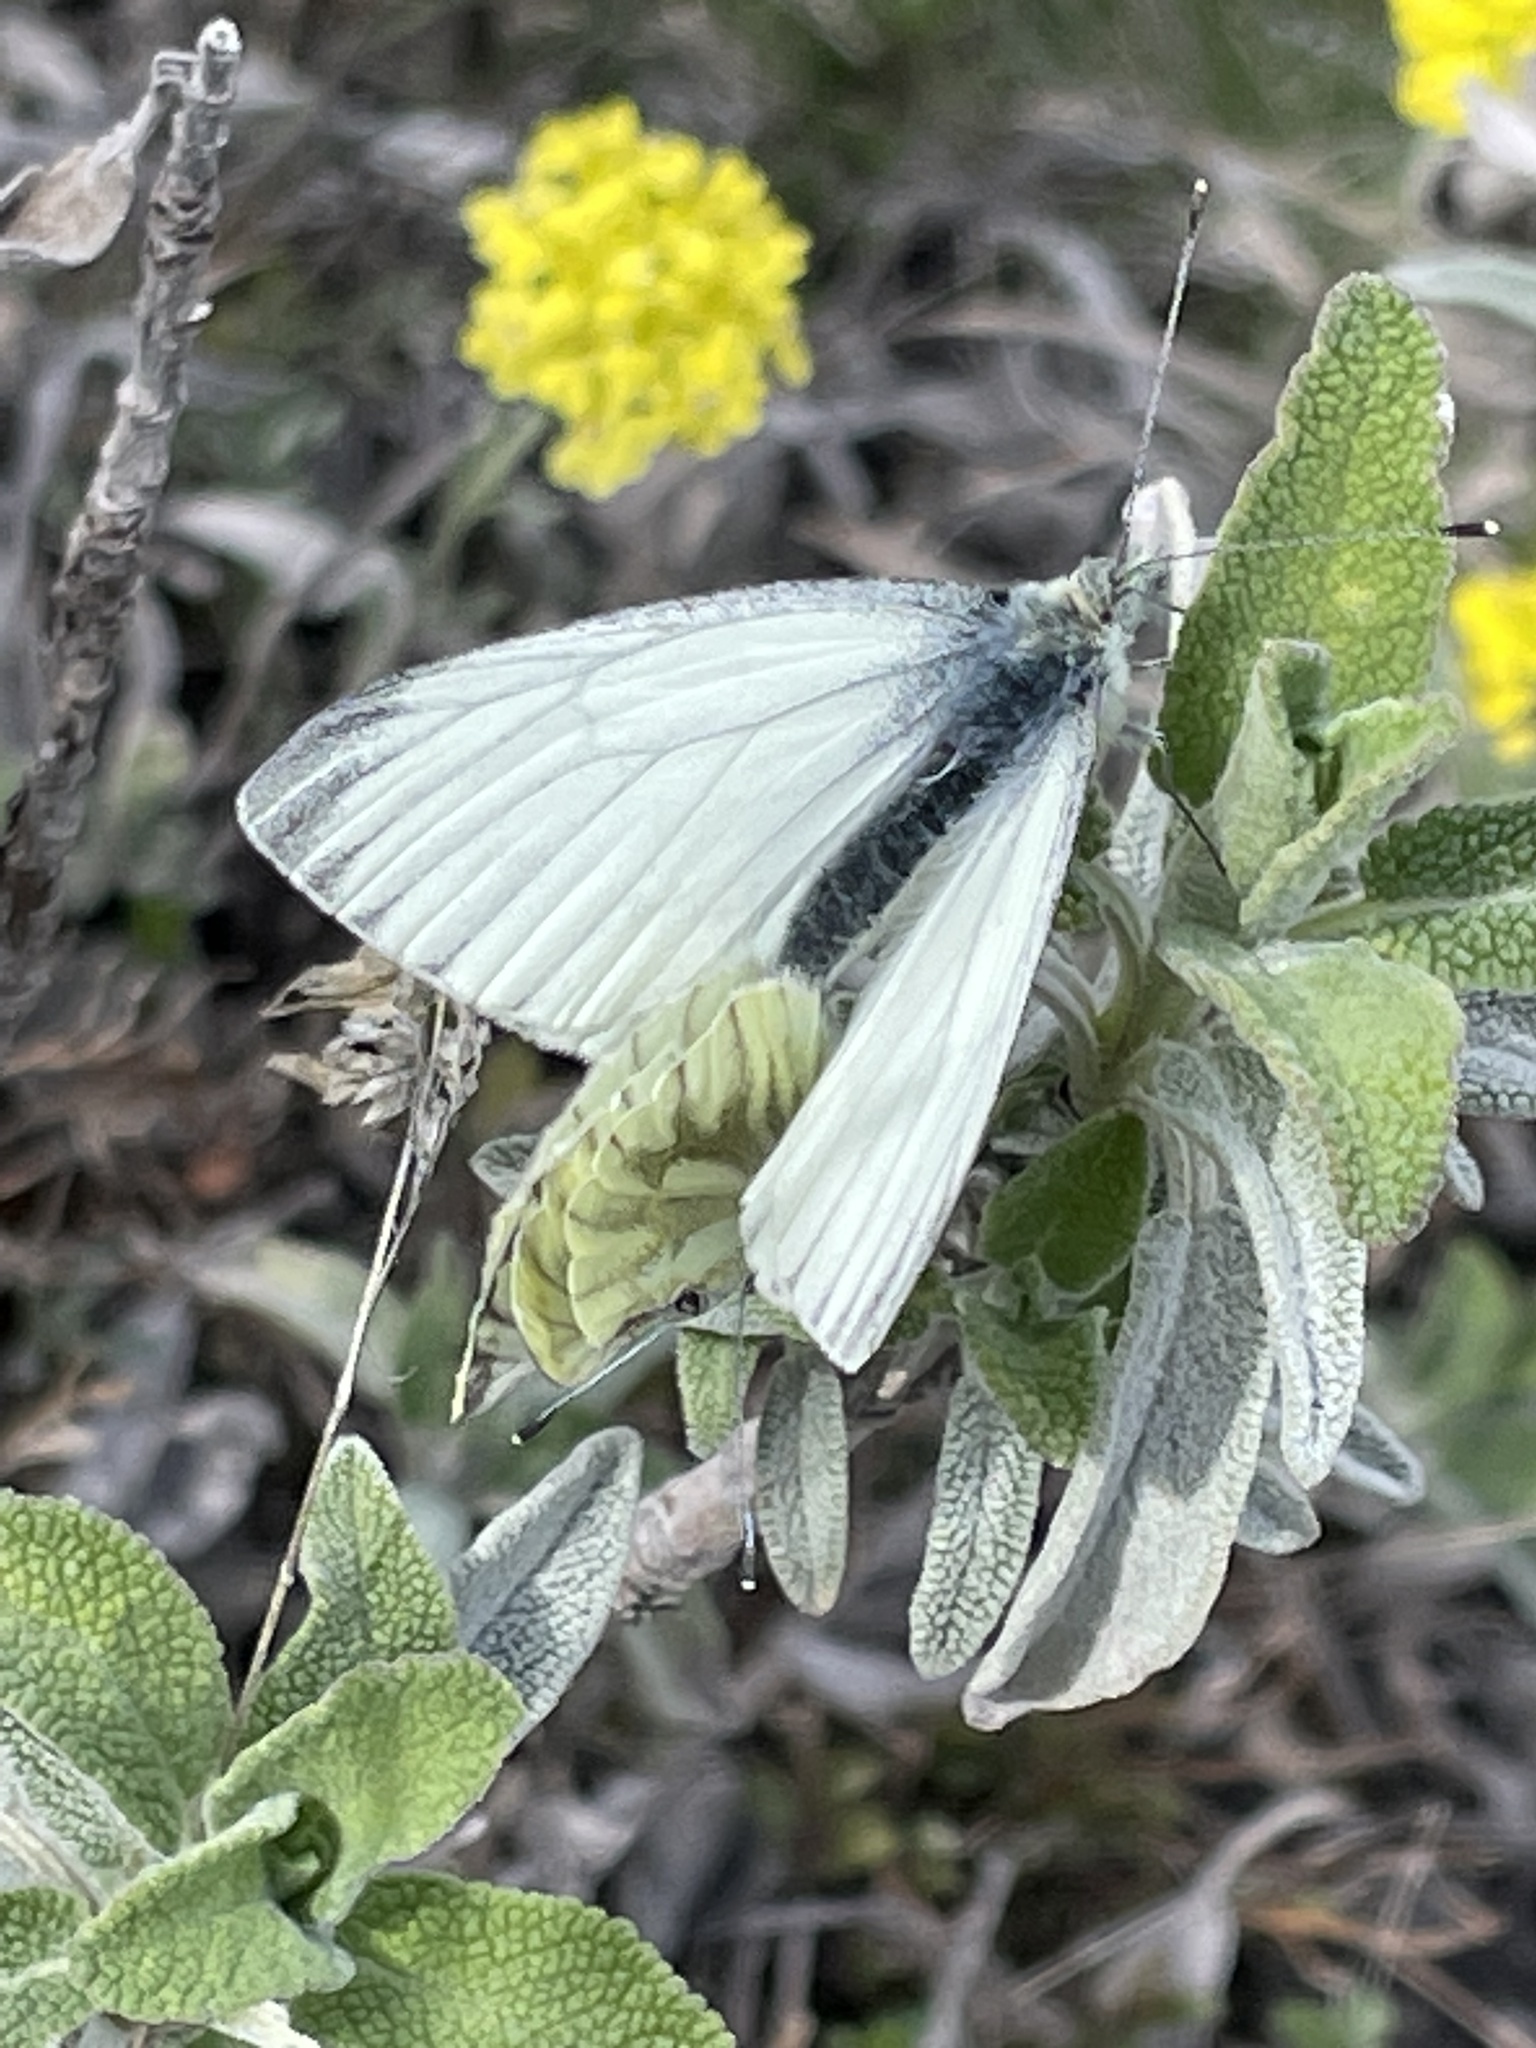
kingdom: Animalia
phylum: Arthropoda
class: Insecta
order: Lepidoptera
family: Pieridae
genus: Pieris
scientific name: Pieris napi
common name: Green-veined white
